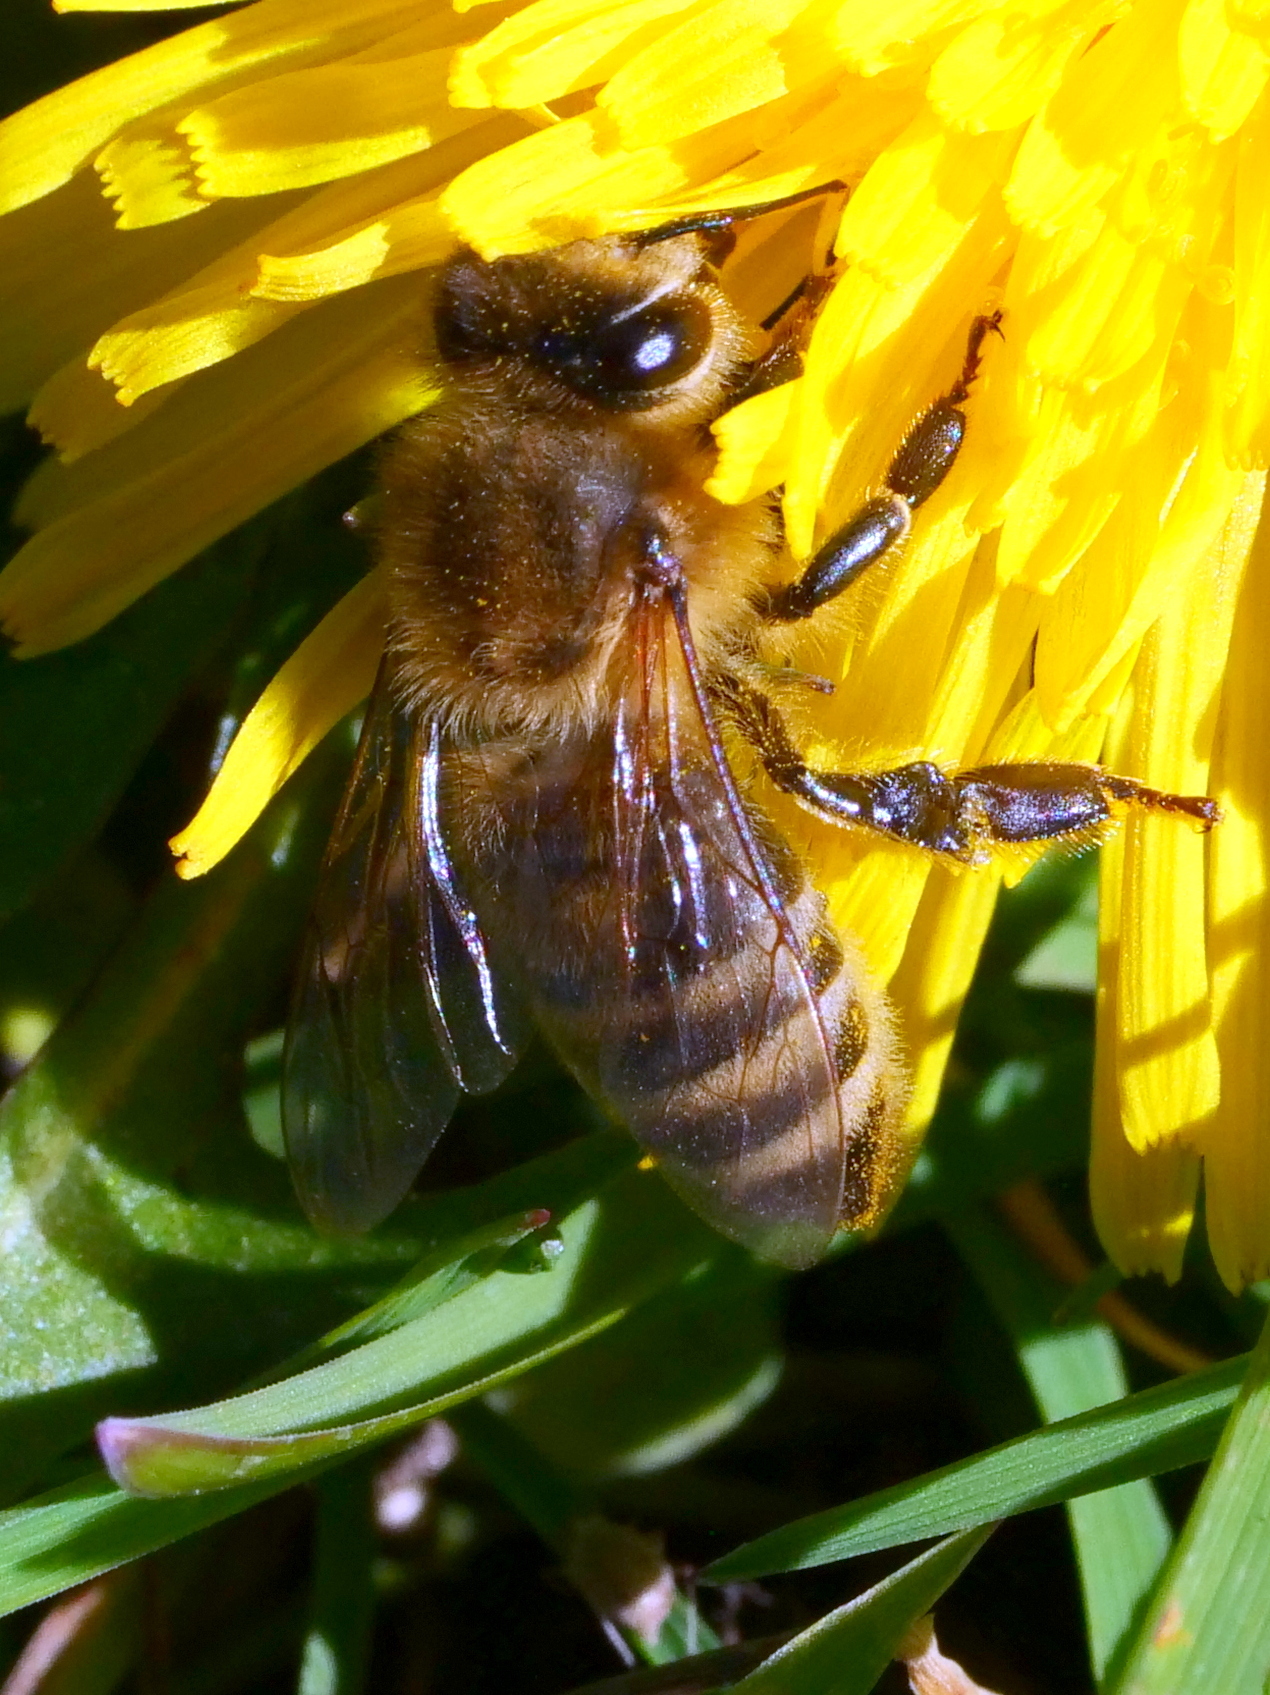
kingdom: Animalia
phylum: Arthropoda
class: Insecta
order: Hymenoptera
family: Apidae
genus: Apis
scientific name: Apis mellifera
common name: Honey bee
